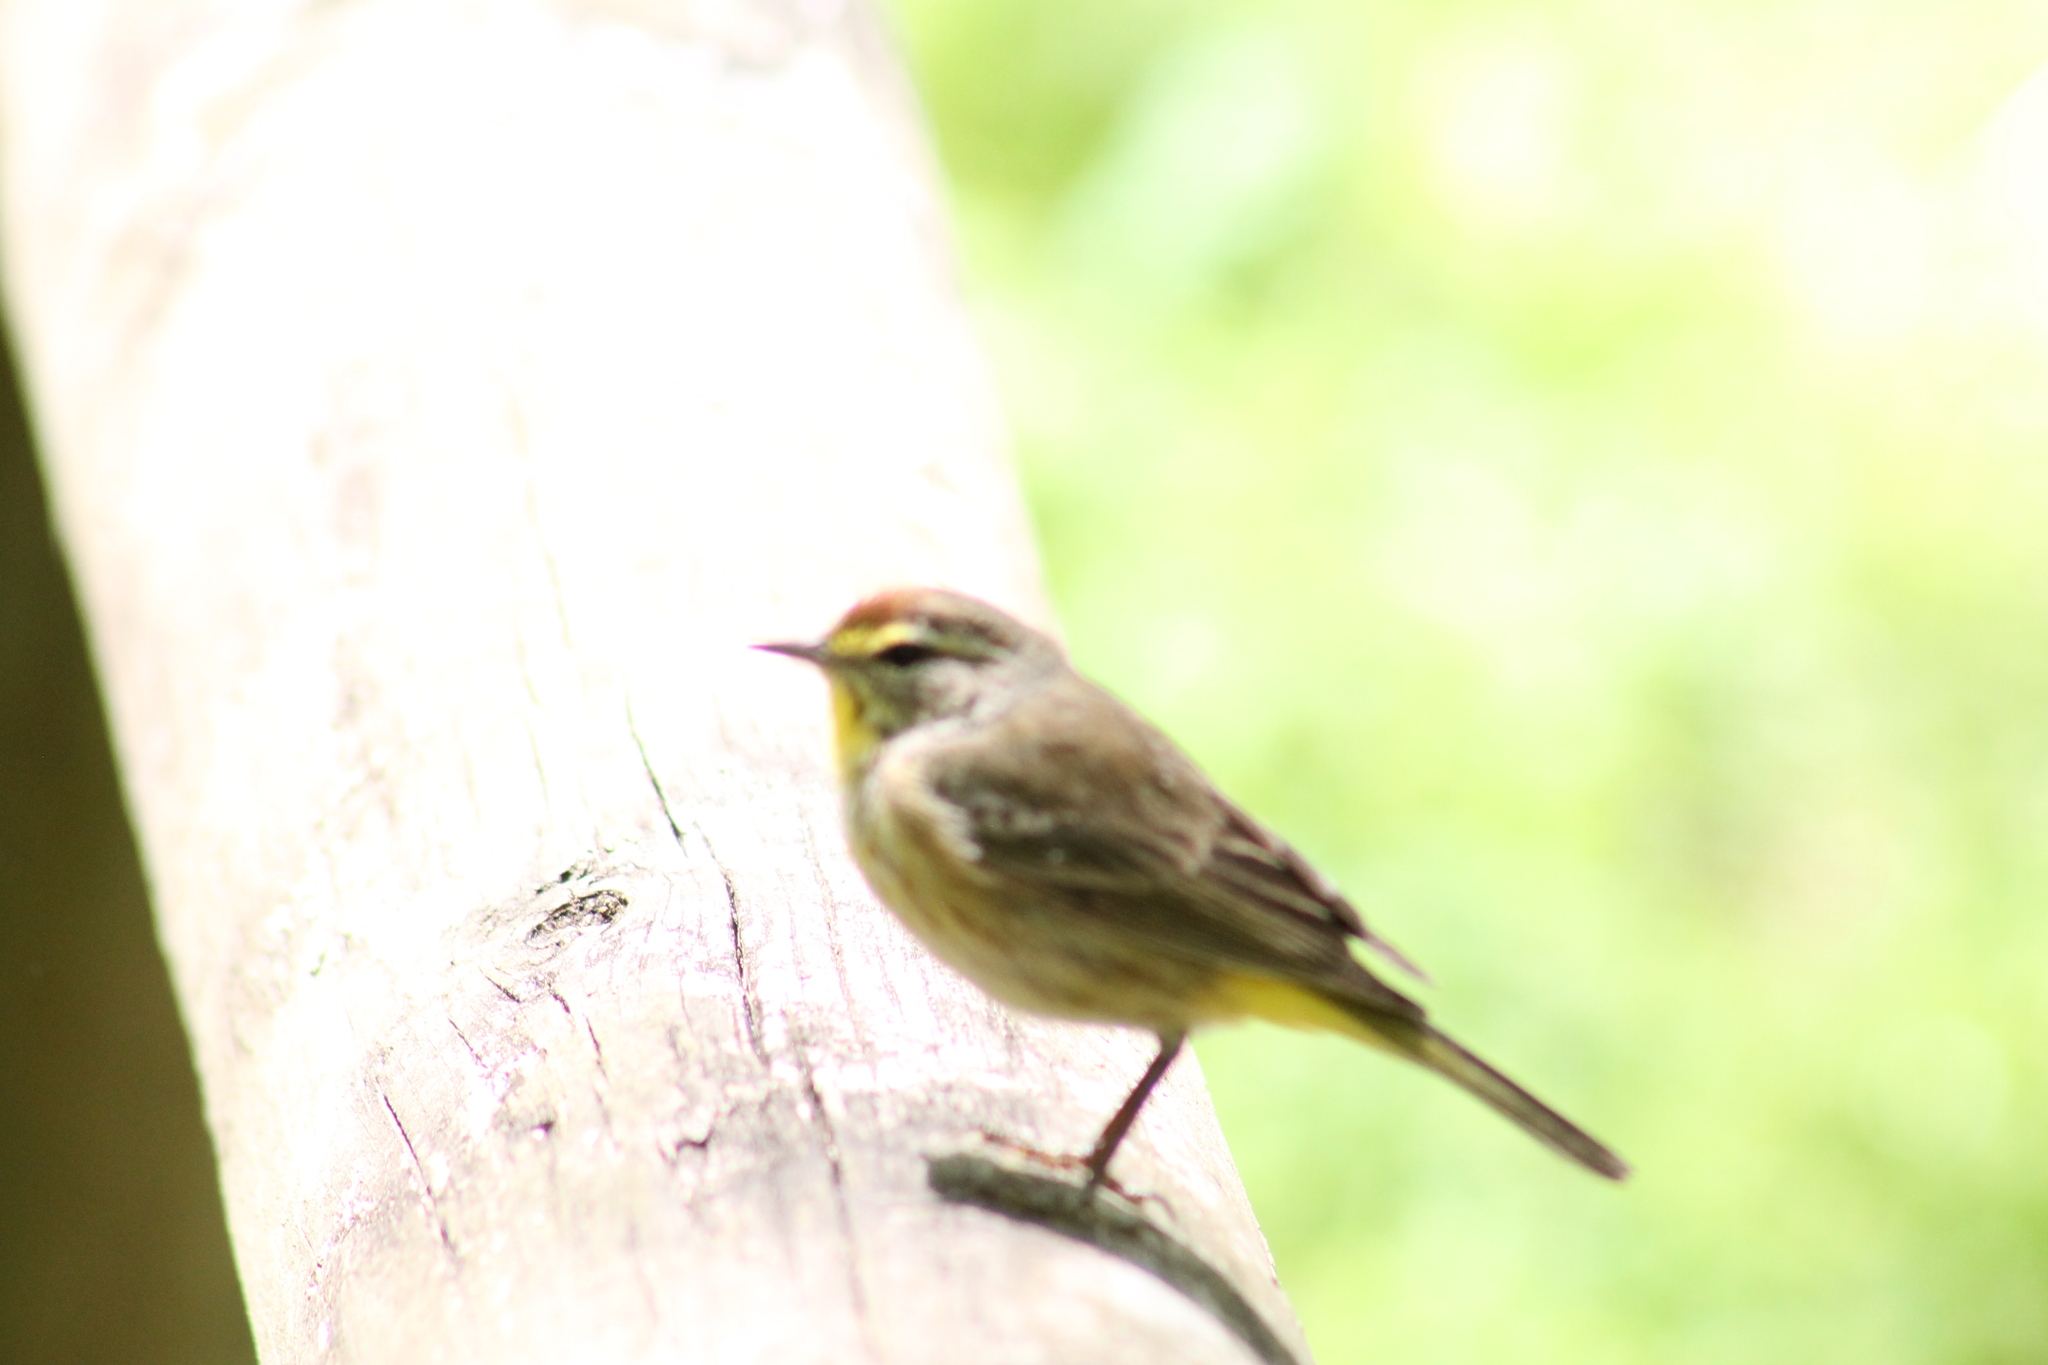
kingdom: Animalia
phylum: Chordata
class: Aves
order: Passeriformes
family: Parulidae
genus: Setophaga
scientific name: Setophaga palmarum
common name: Palm warbler
